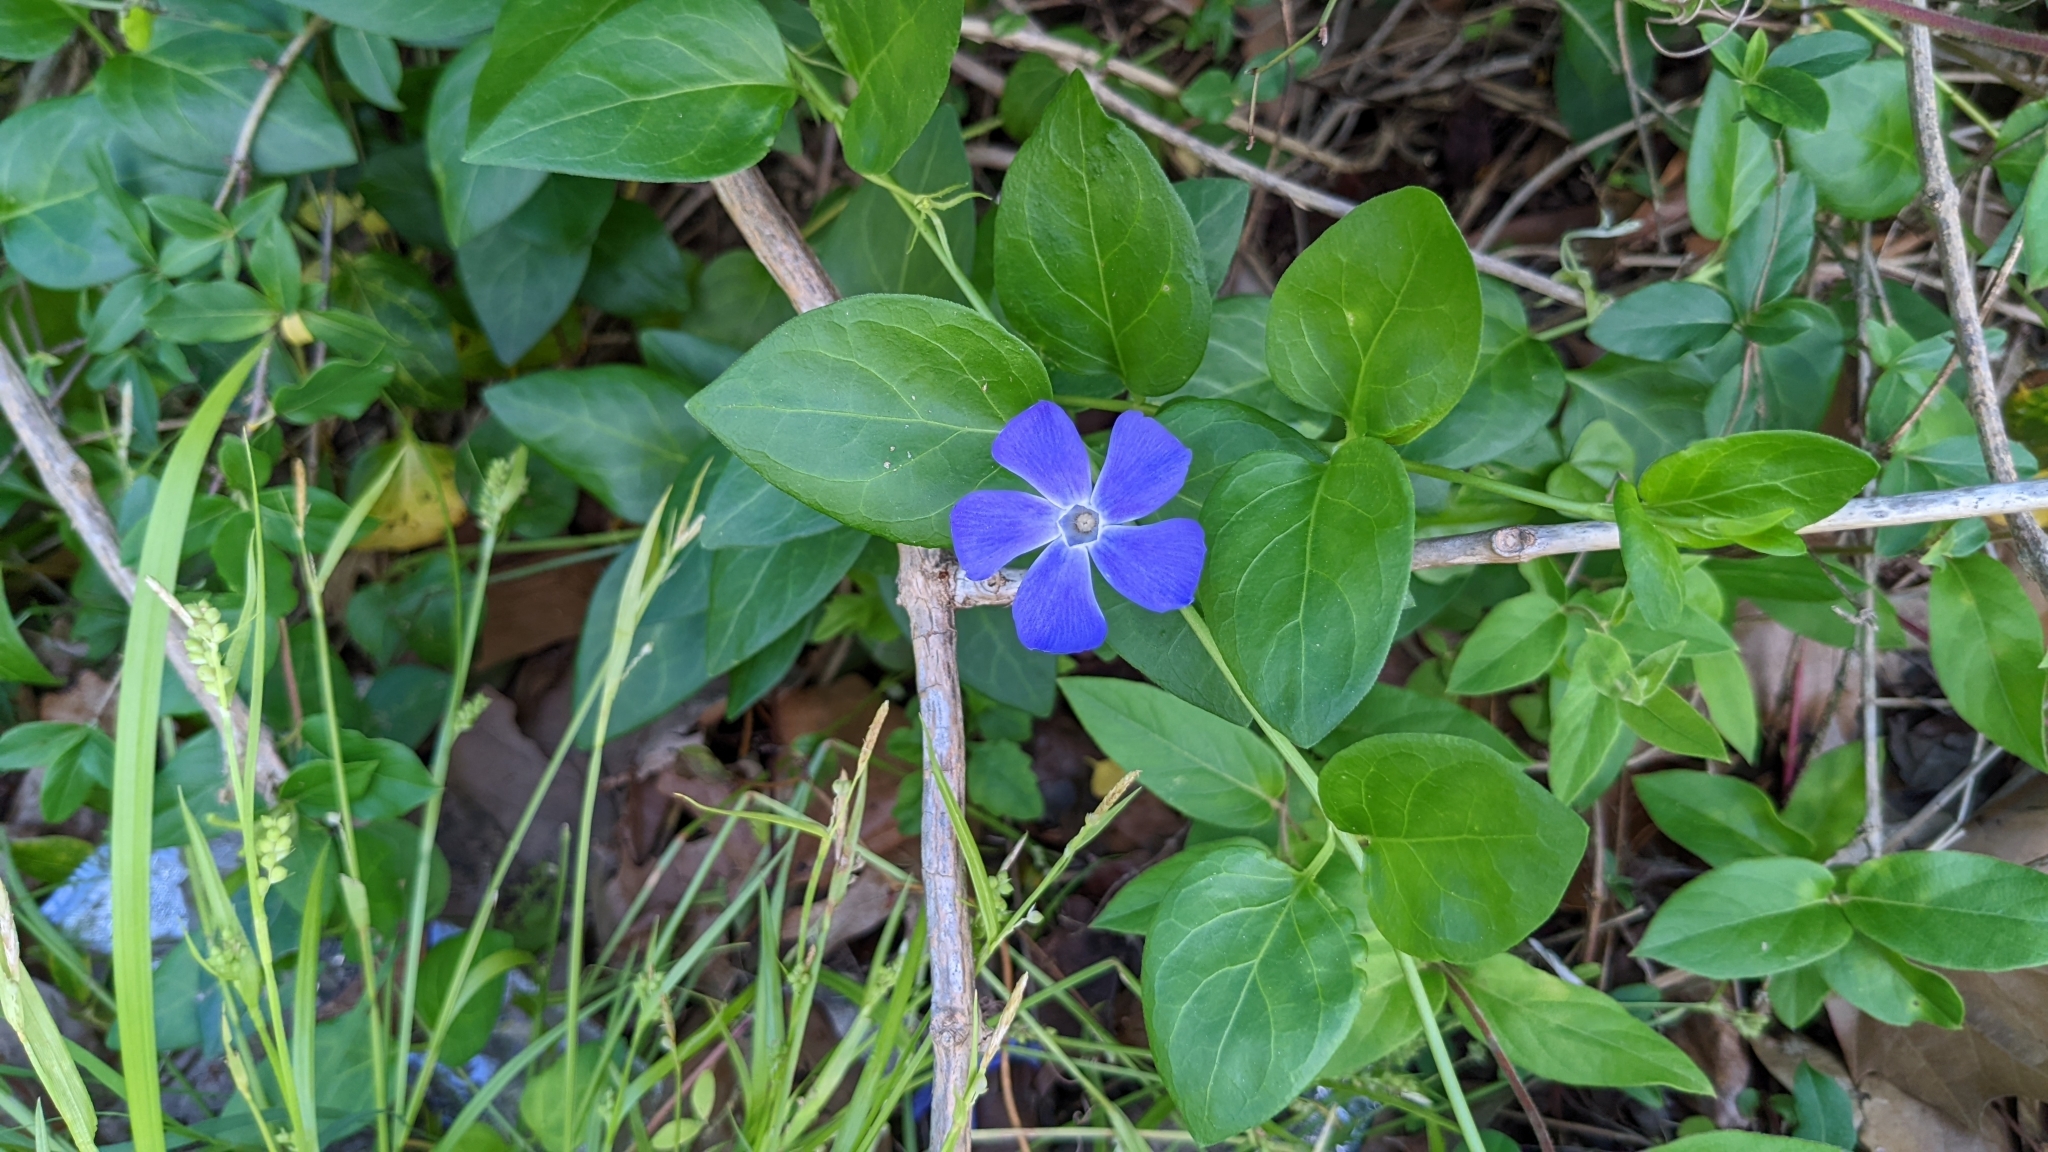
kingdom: Plantae
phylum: Tracheophyta
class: Magnoliopsida
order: Gentianales
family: Apocynaceae
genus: Vinca
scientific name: Vinca major
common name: Greater periwinkle
